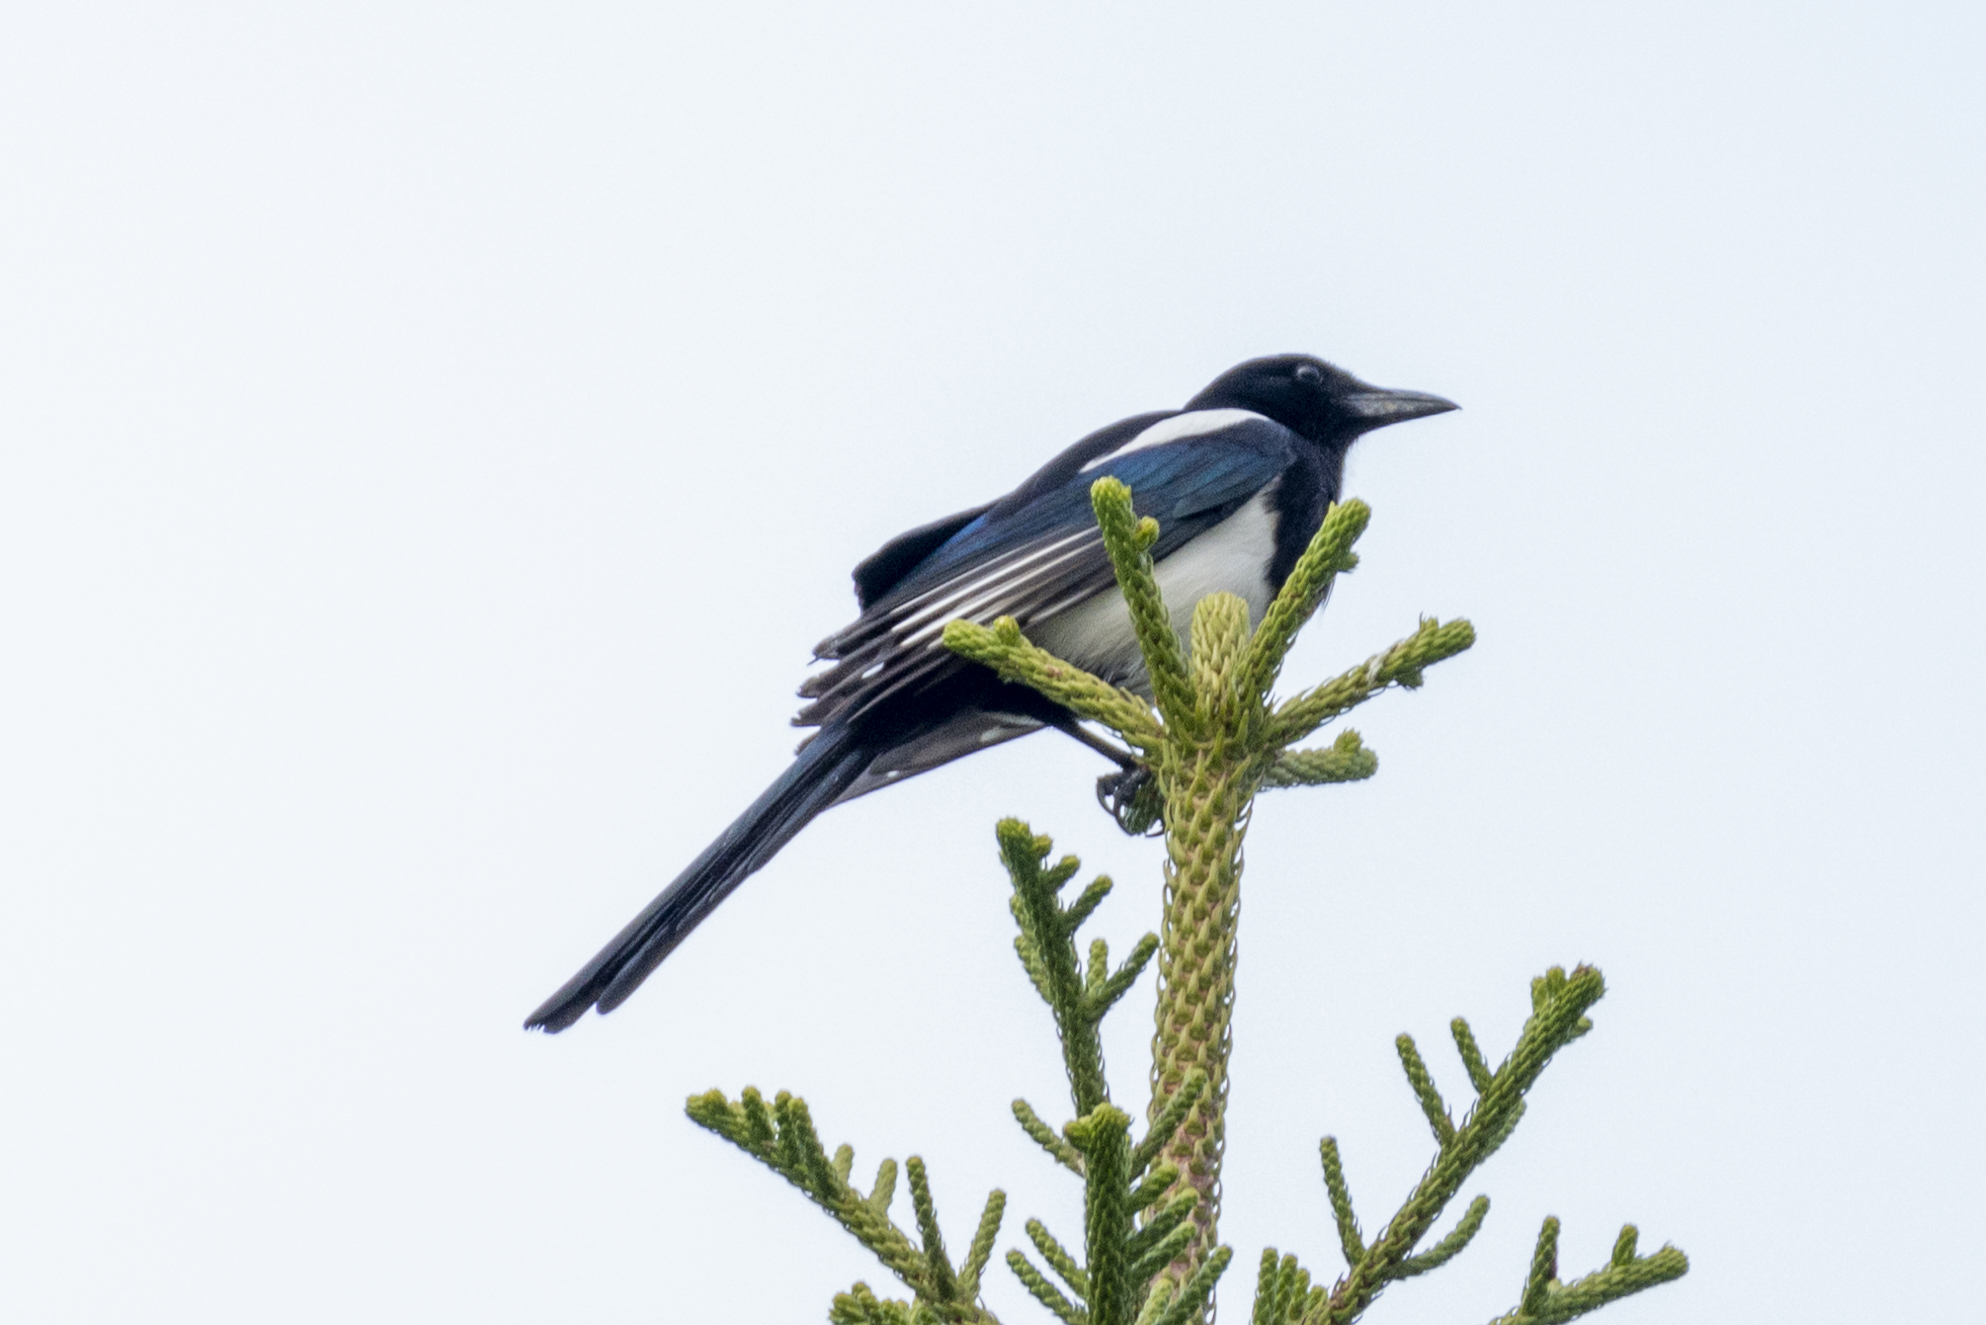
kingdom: Animalia
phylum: Chordata
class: Aves
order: Passeriformes
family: Corvidae
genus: Pica
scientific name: Pica serica
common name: Oriental magpie
